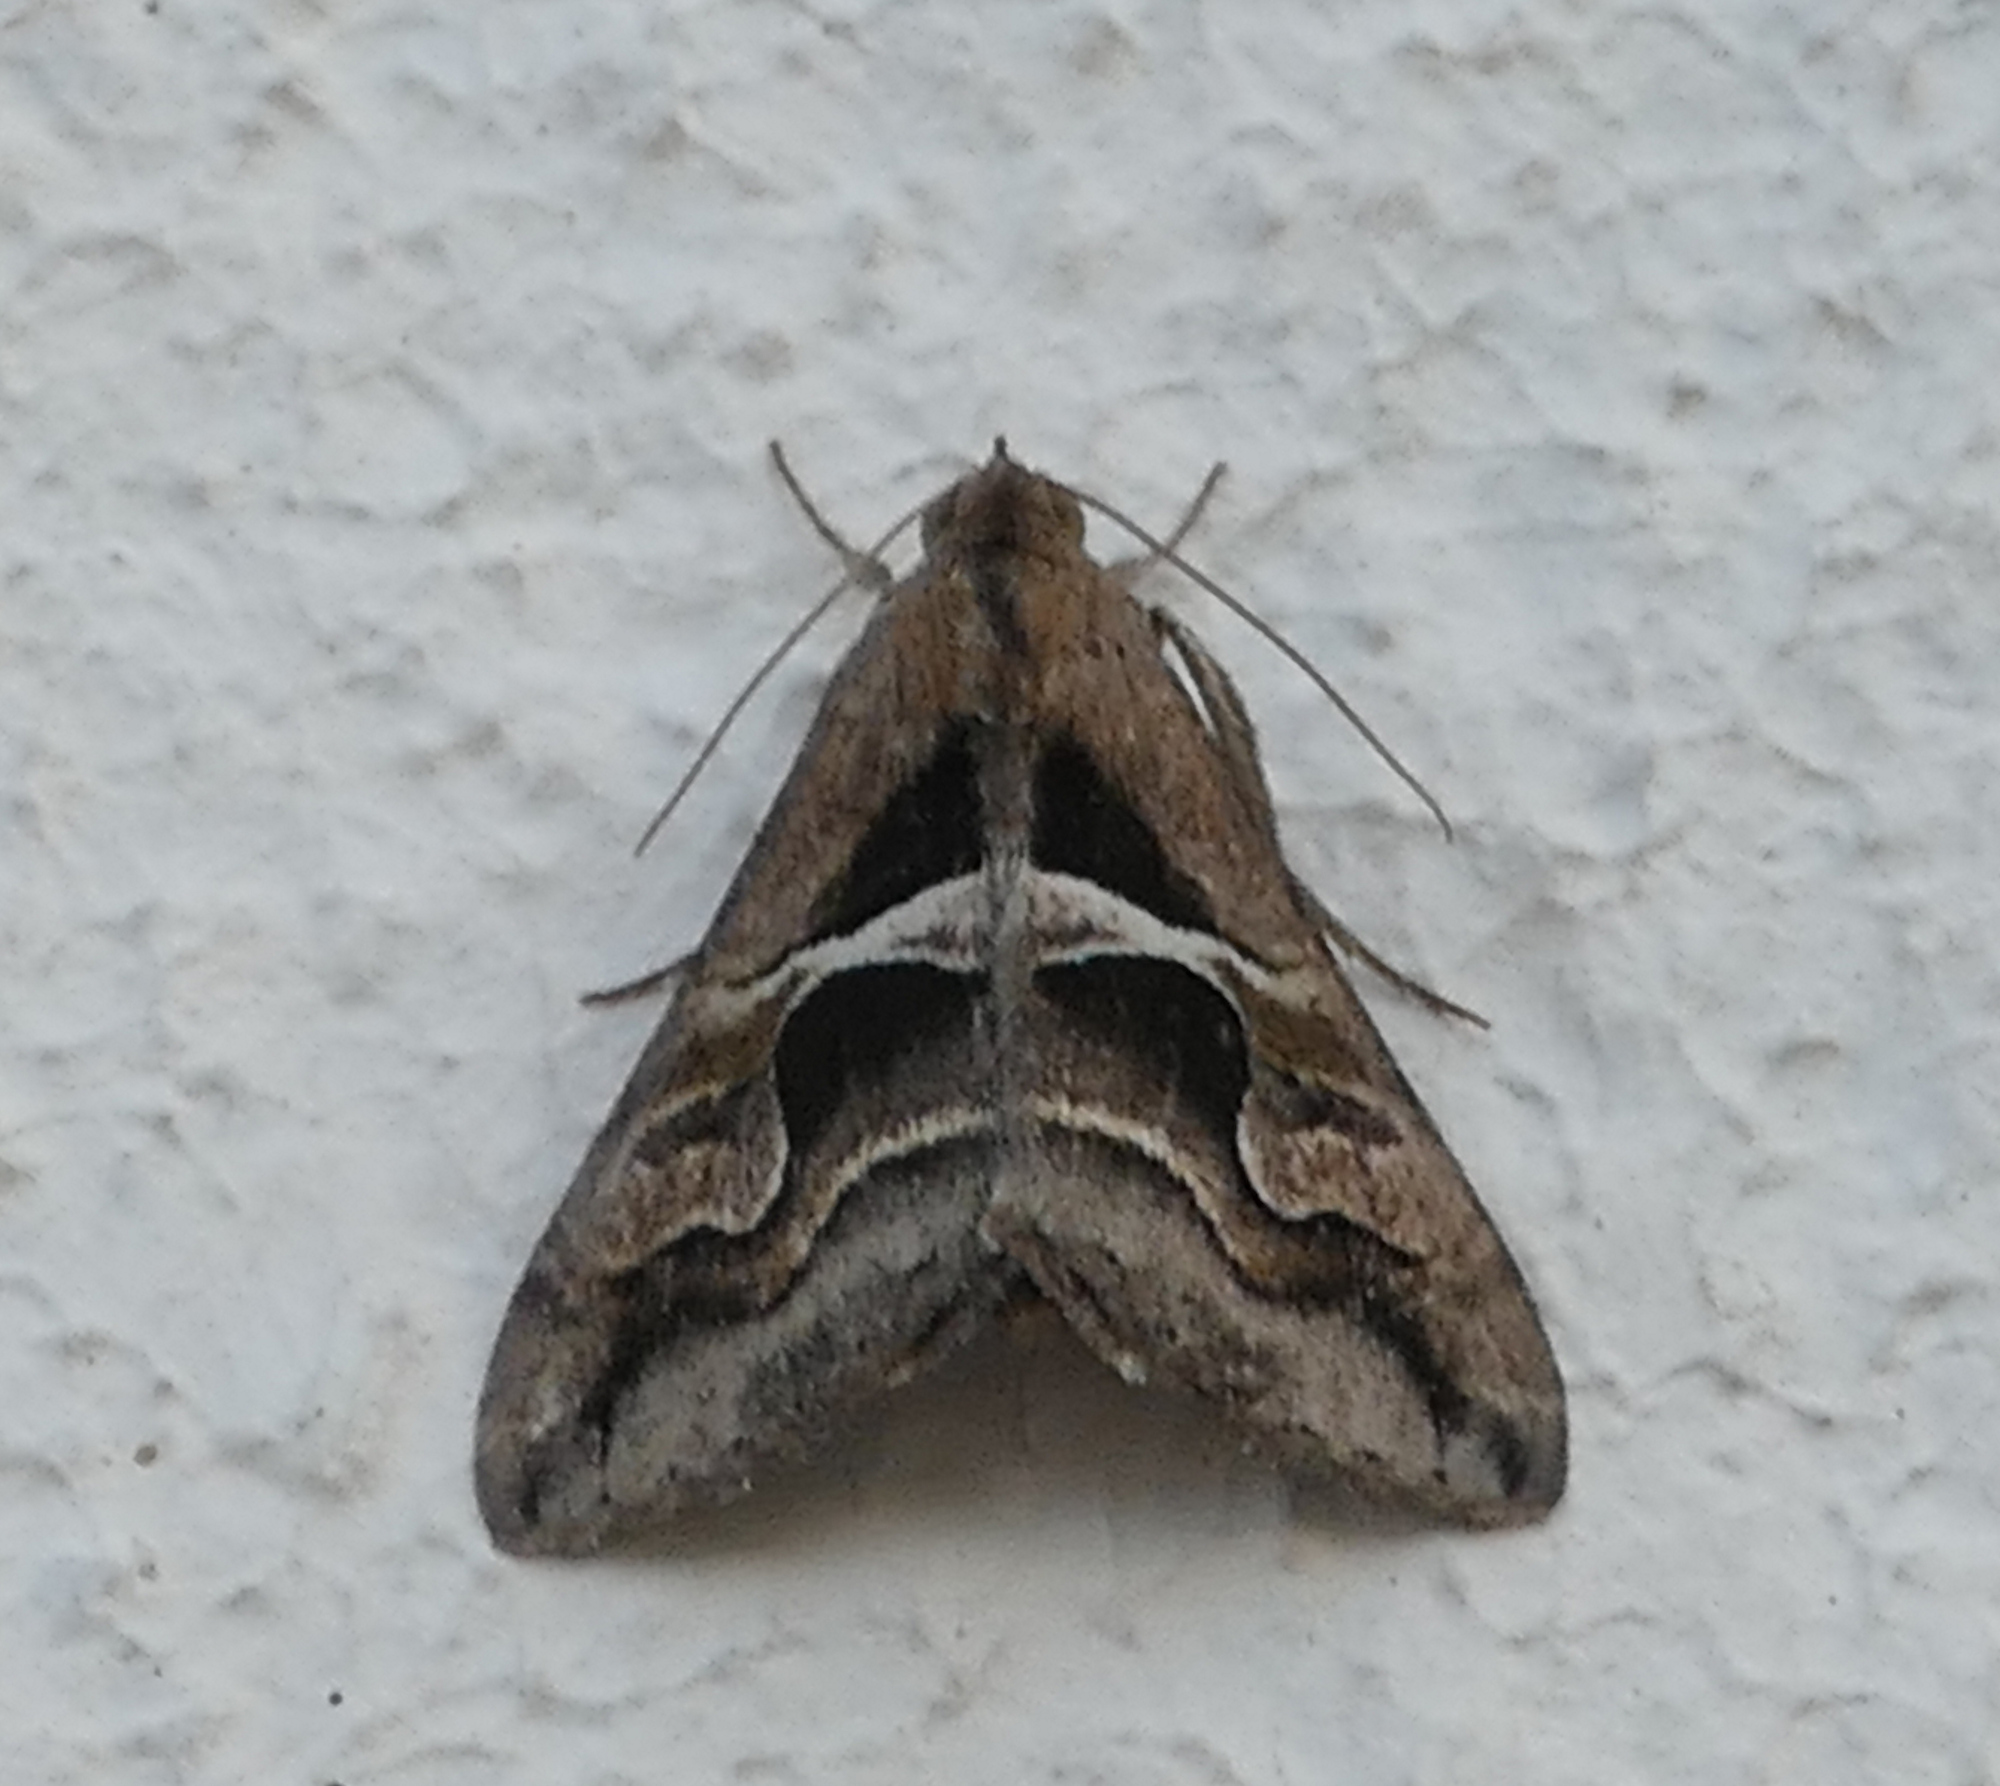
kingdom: Animalia
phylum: Arthropoda
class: Insecta
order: Lepidoptera
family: Erebidae
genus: Melipotis
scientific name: Melipotis cellaris
